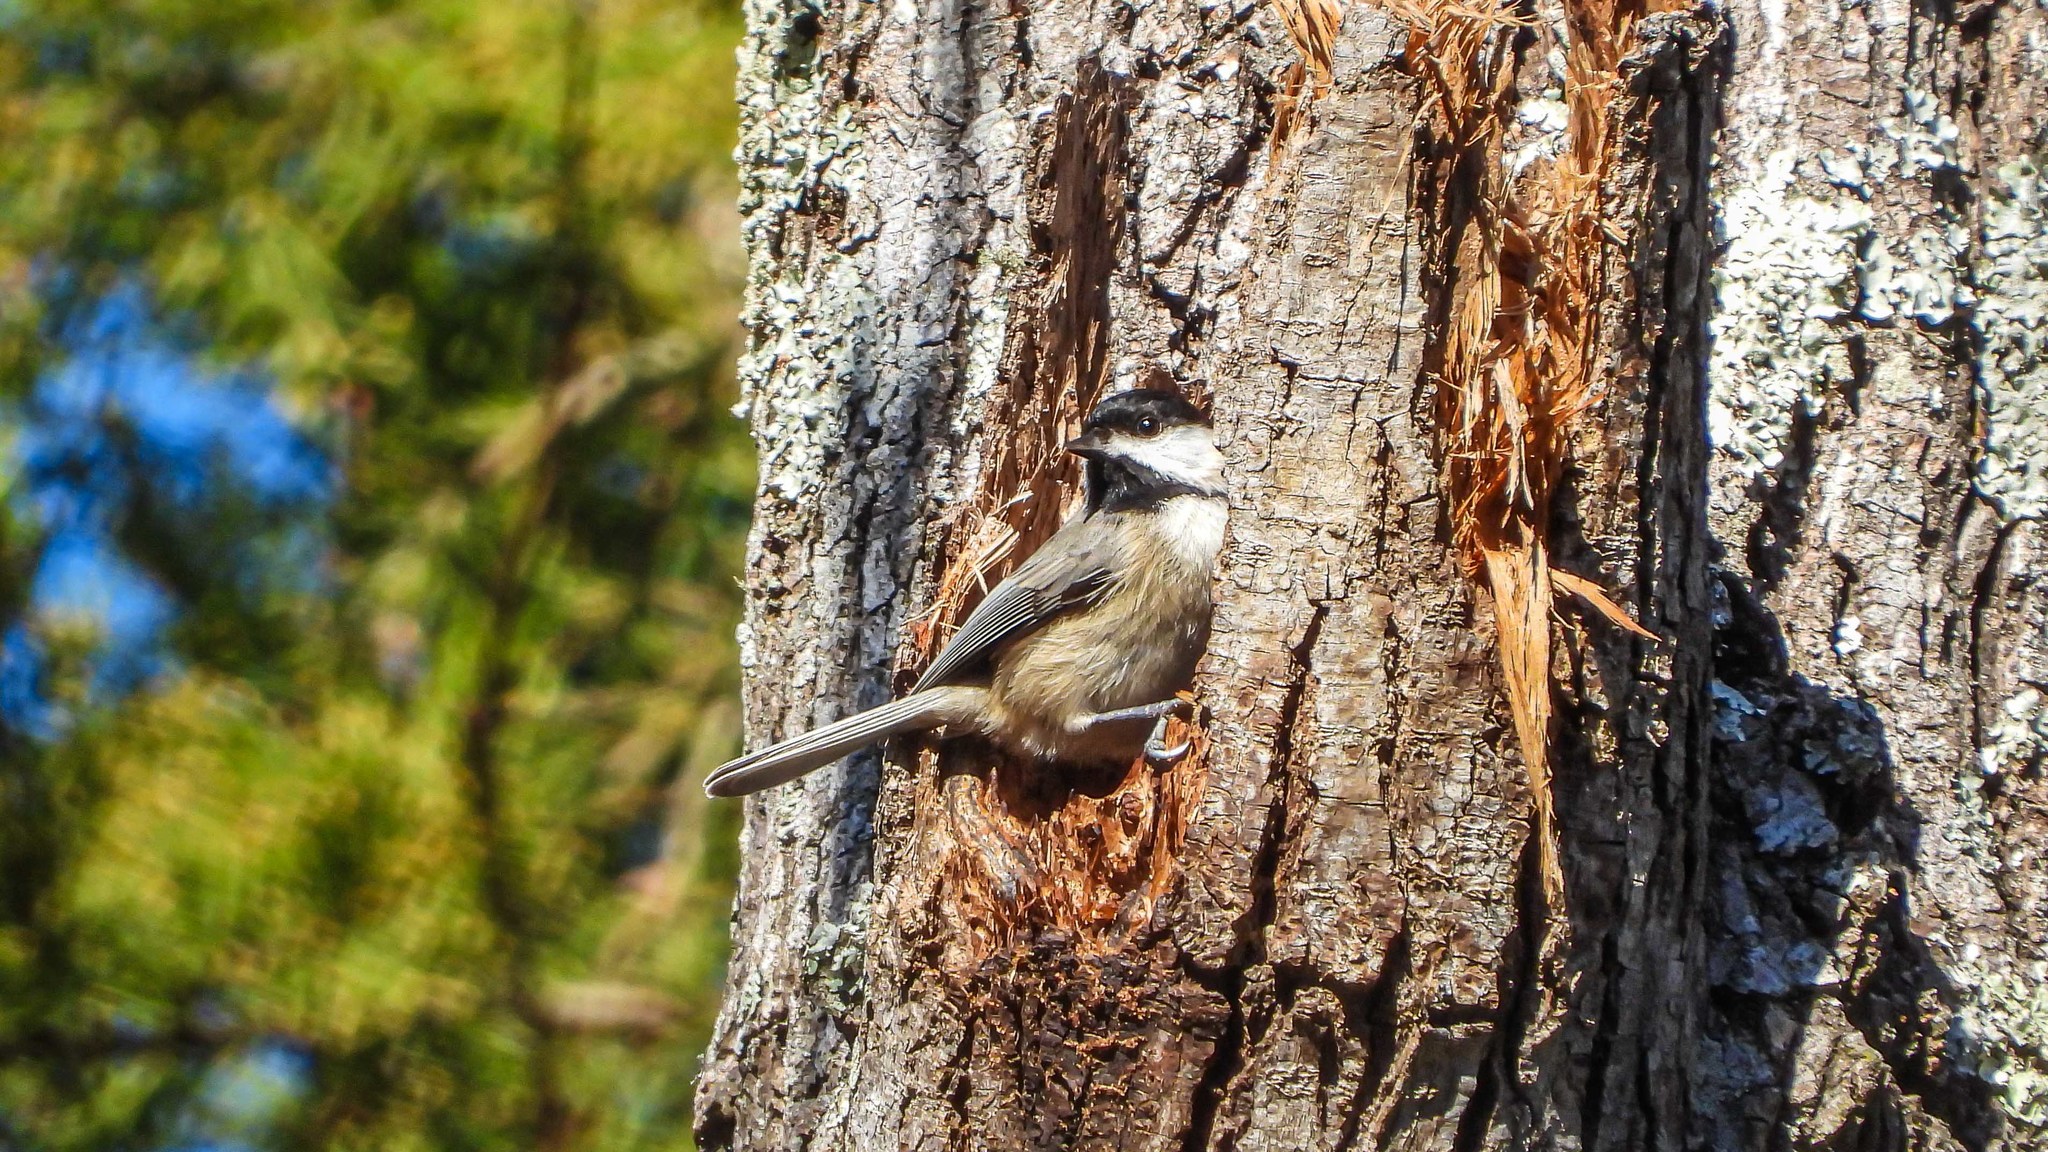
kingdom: Animalia
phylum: Chordata
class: Aves
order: Passeriformes
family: Paridae
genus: Poecile
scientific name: Poecile carolinensis
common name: Carolina chickadee
